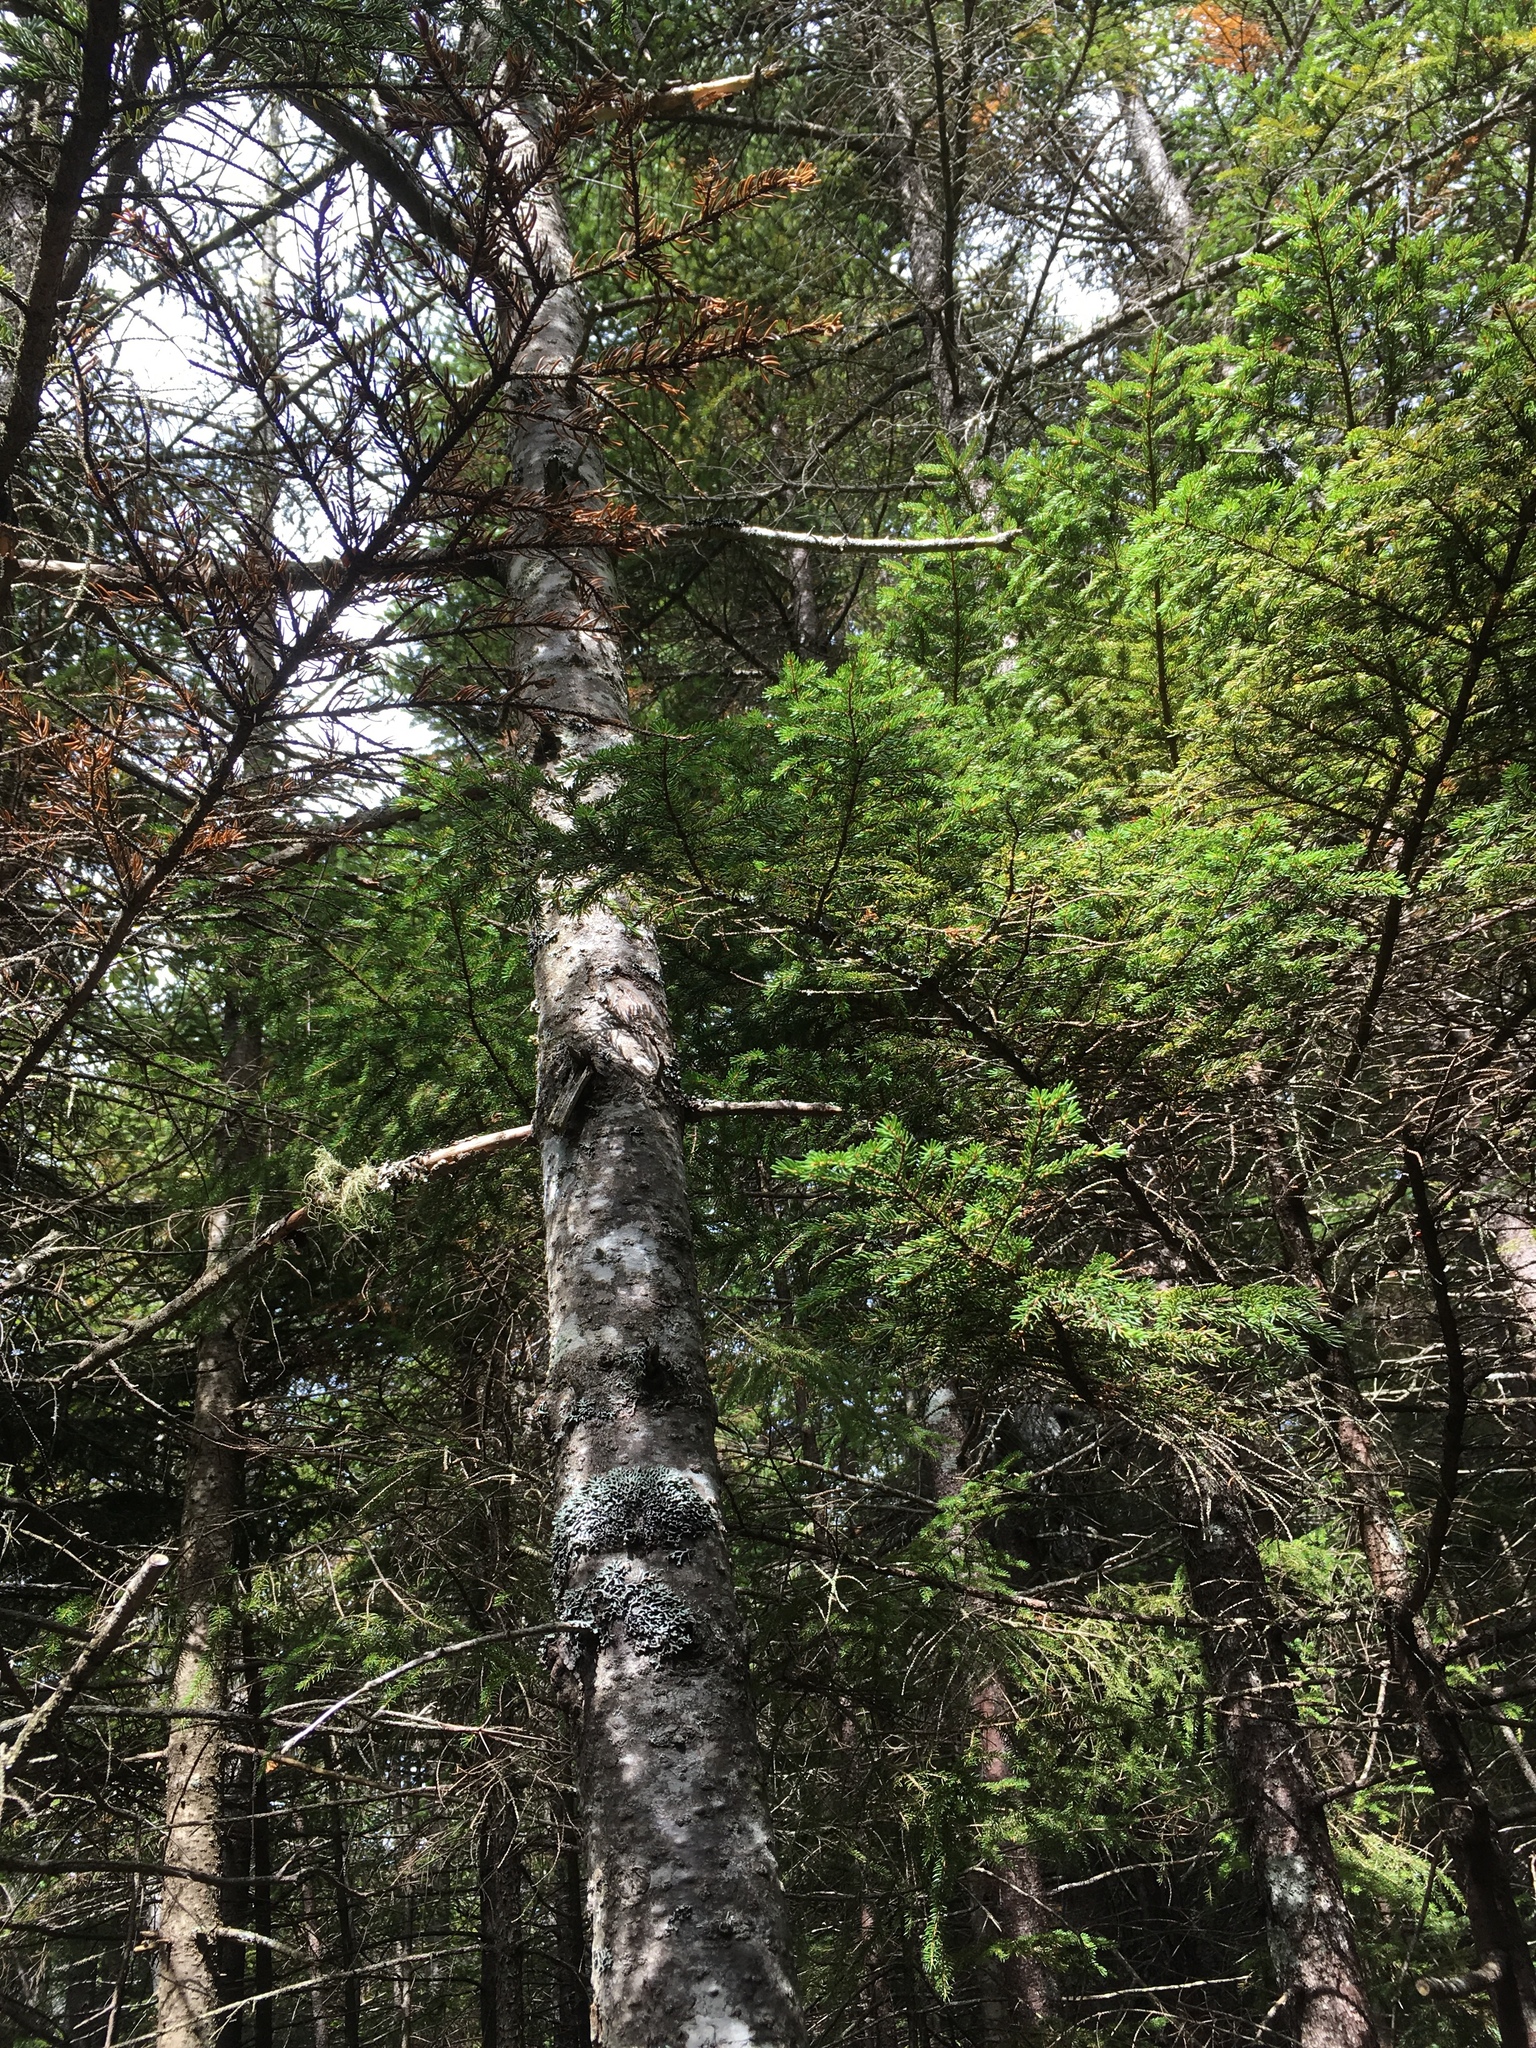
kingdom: Plantae
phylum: Tracheophyta
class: Pinopsida
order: Pinales
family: Pinaceae
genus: Abies
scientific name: Abies balsamea
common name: Balsam fir
